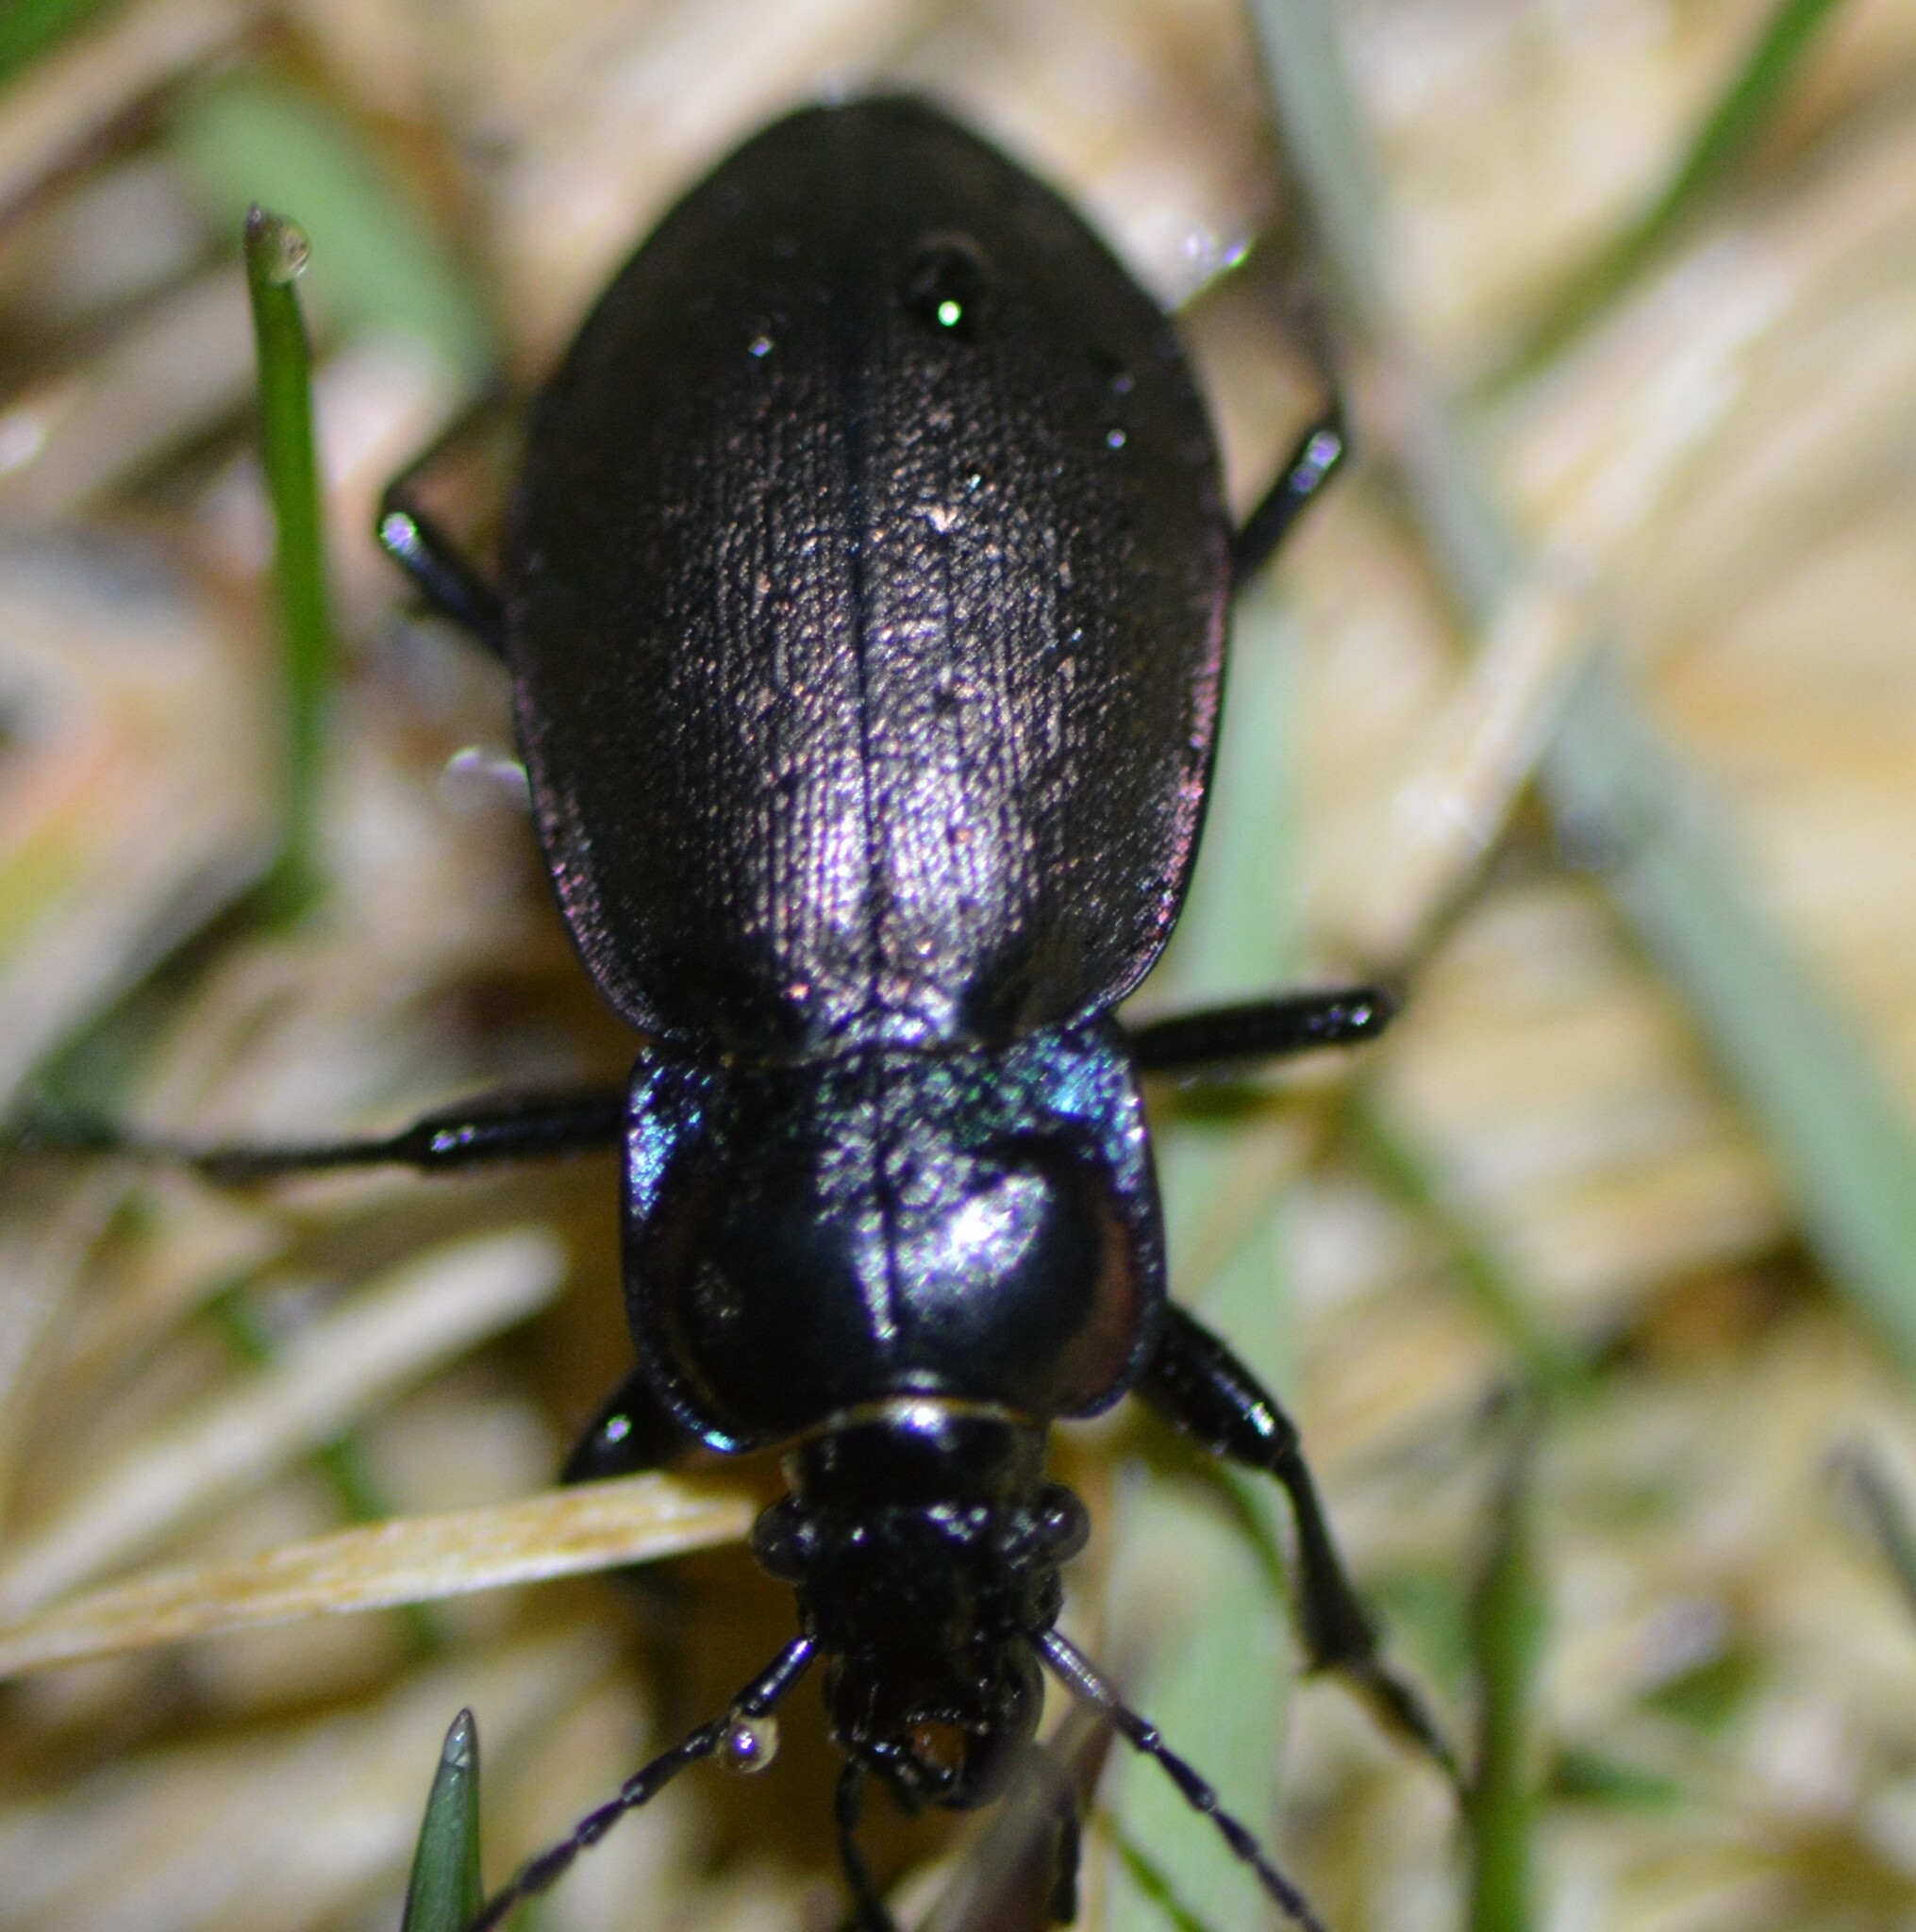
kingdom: Animalia
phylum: Arthropoda
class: Insecta
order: Coleoptera
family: Carabidae
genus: Carabus
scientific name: Carabus nemoralis
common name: European ground beetle
